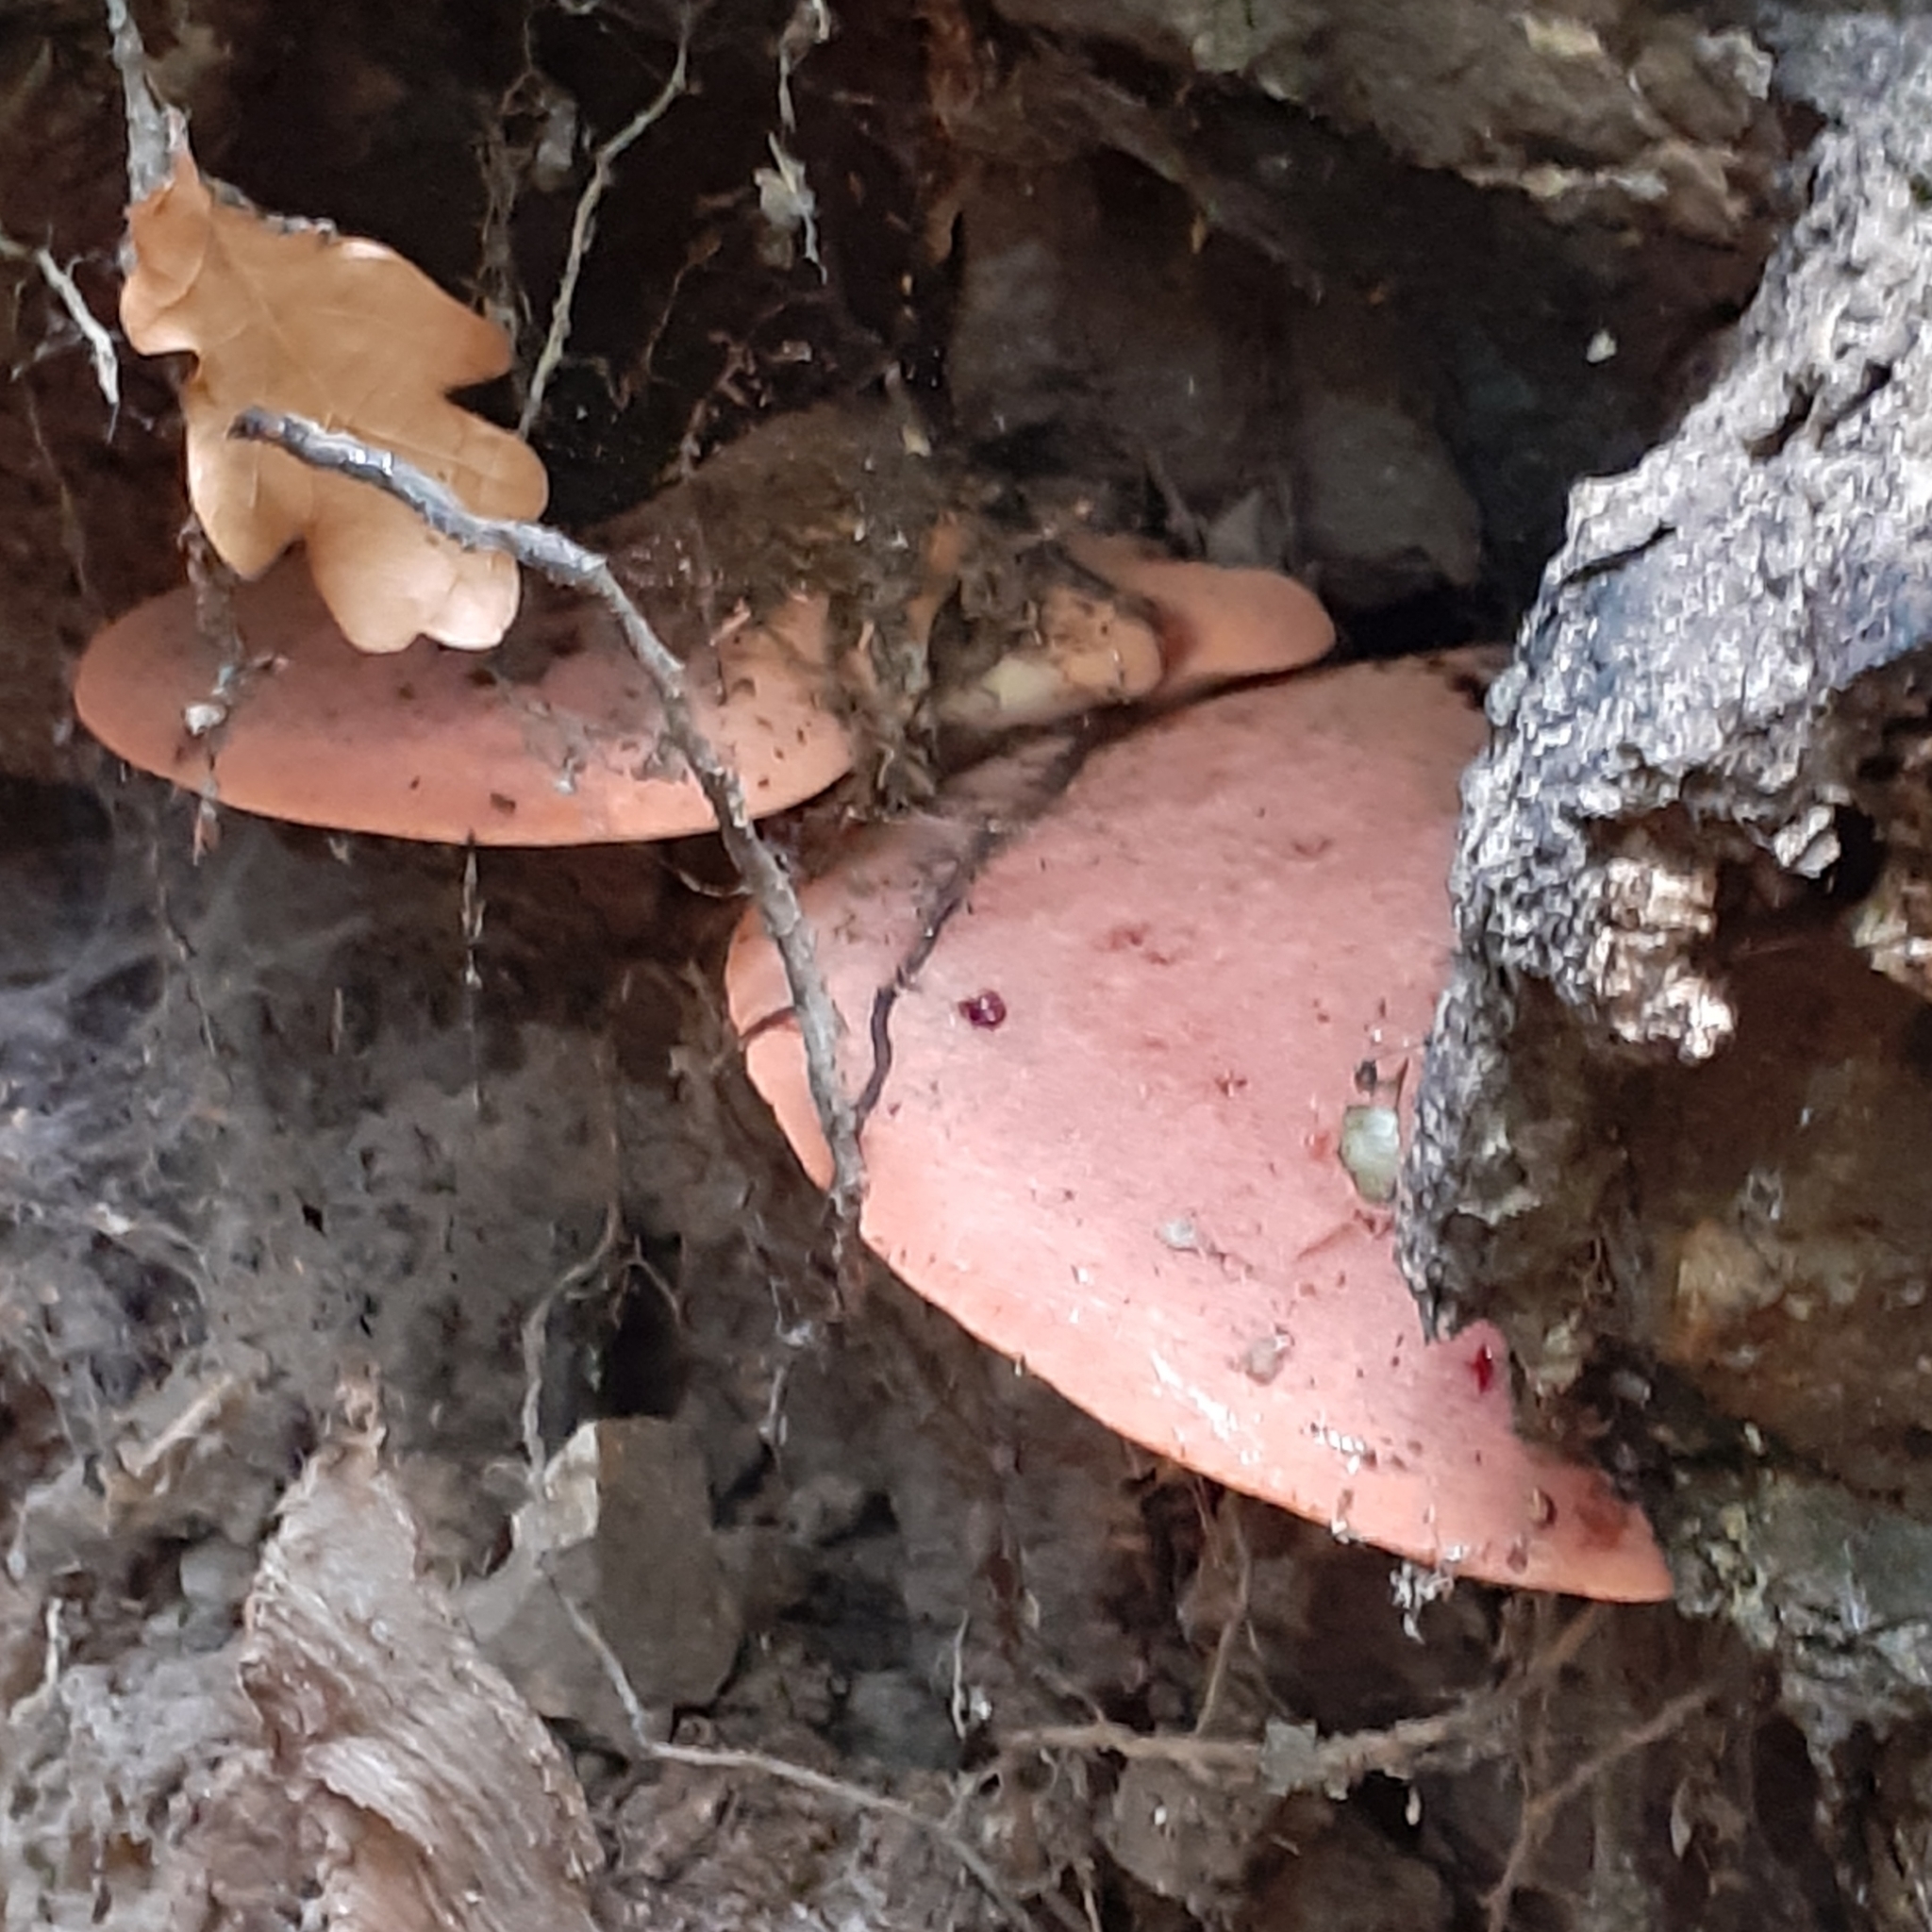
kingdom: Fungi
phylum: Basidiomycota
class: Agaricomycetes
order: Agaricales
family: Fistulinaceae
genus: Fistulina
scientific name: Fistulina hepatica
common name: Beef-steak fungus
